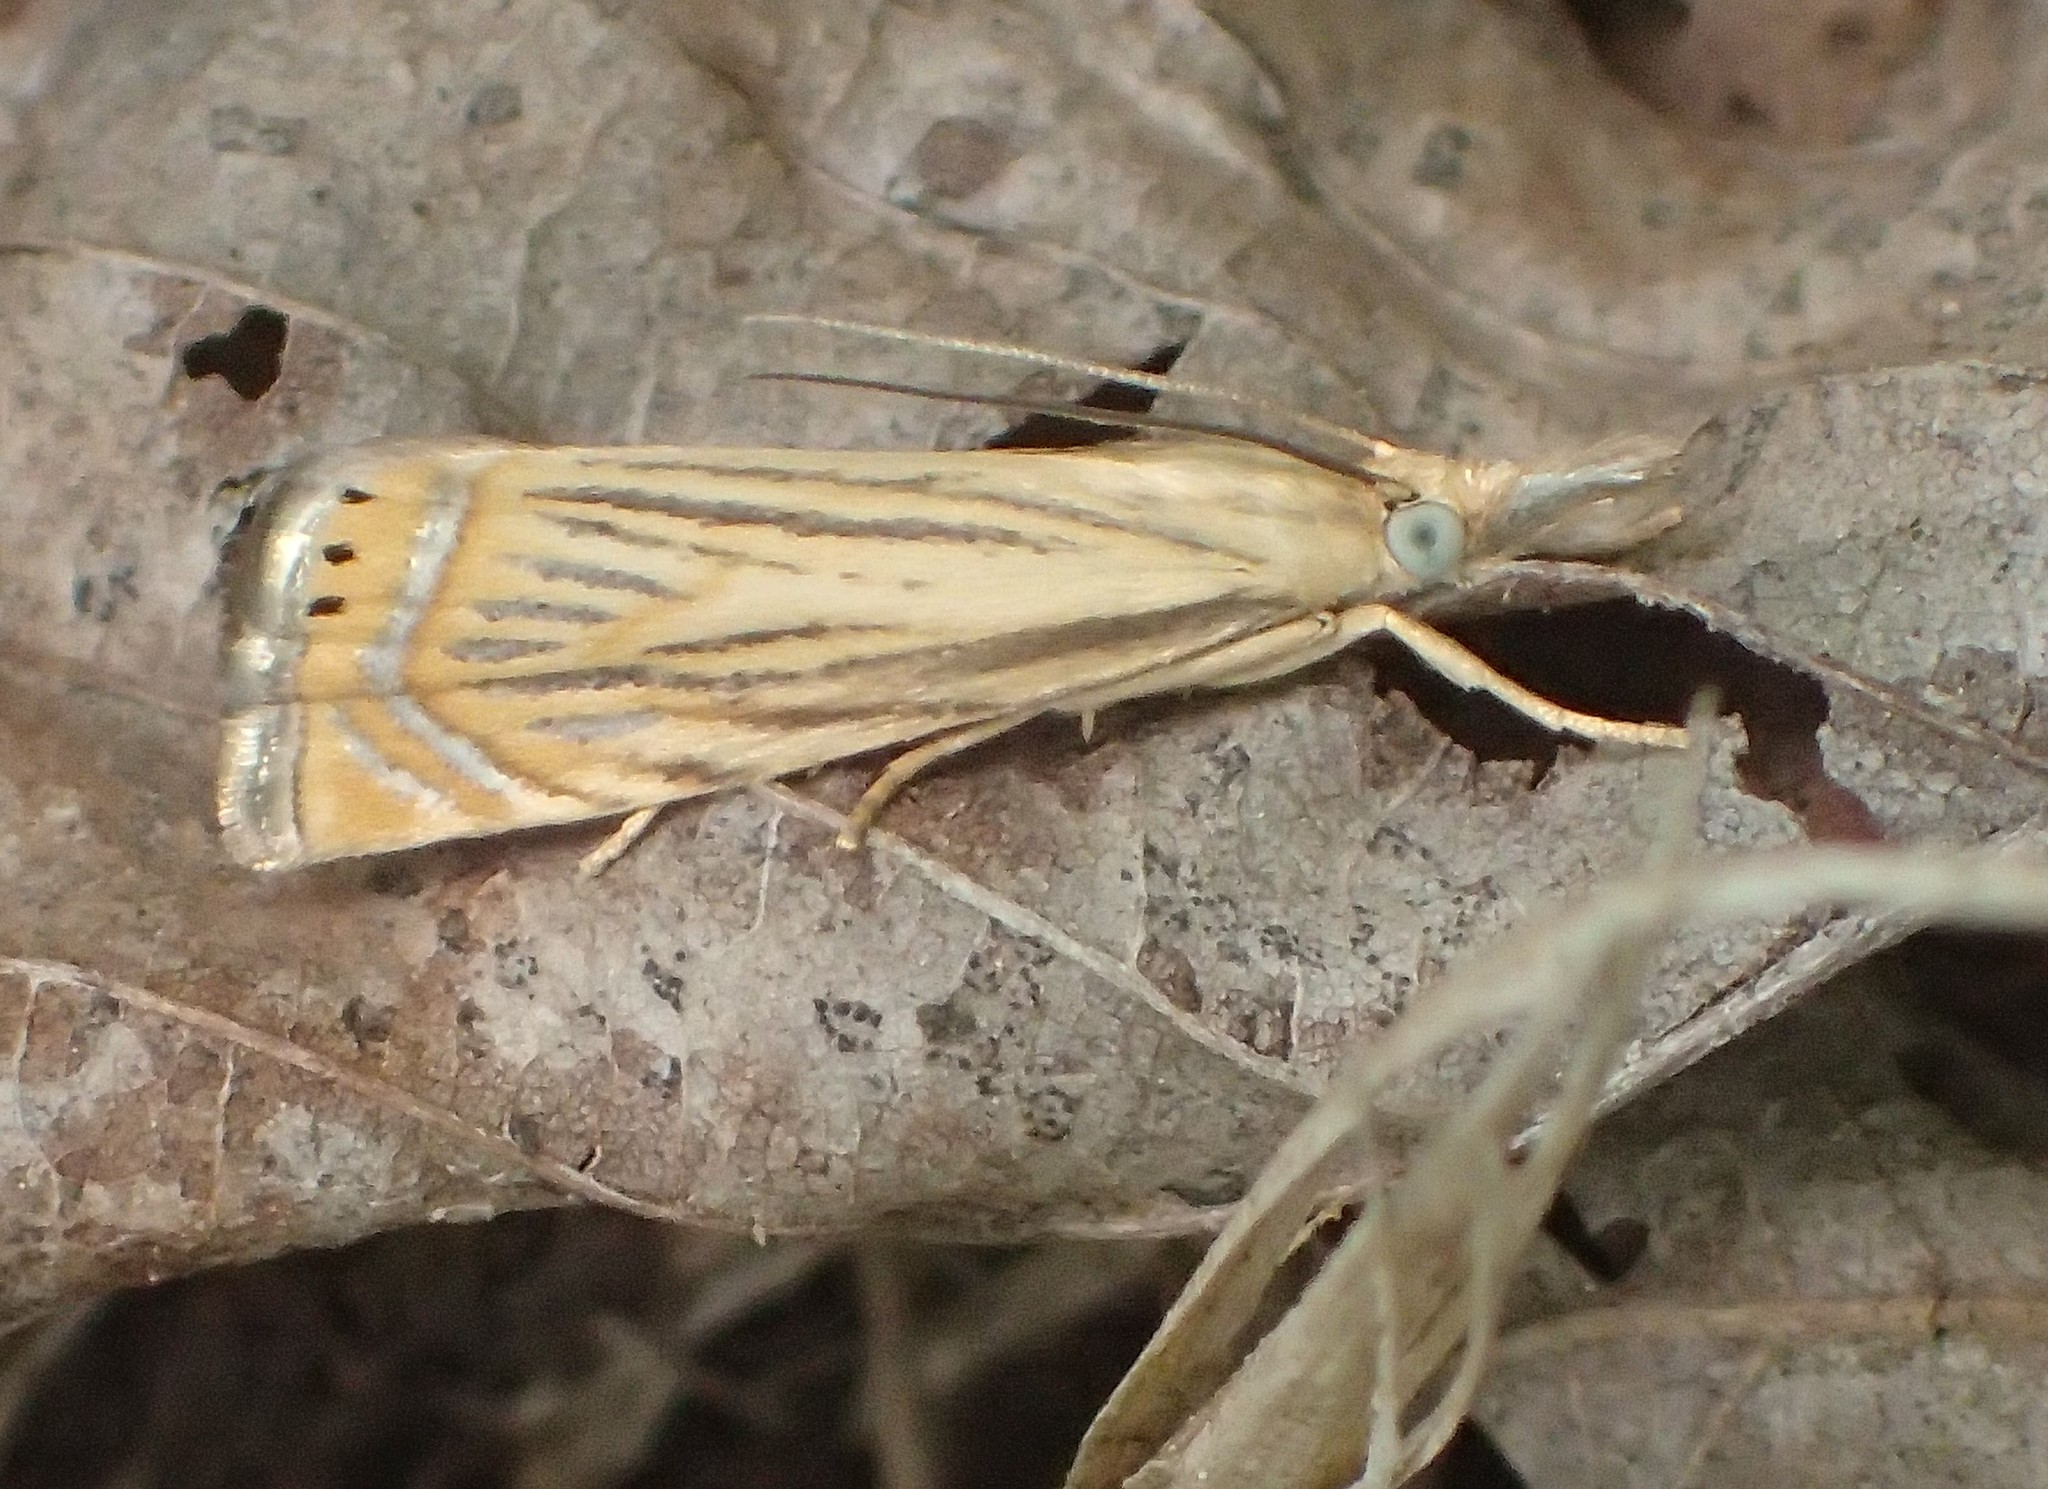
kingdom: Animalia
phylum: Arthropoda
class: Insecta
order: Lepidoptera
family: Crambidae
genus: Chrysoteuchia
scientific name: Chrysoteuchia topiarius
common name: Topiary grass-veneer
